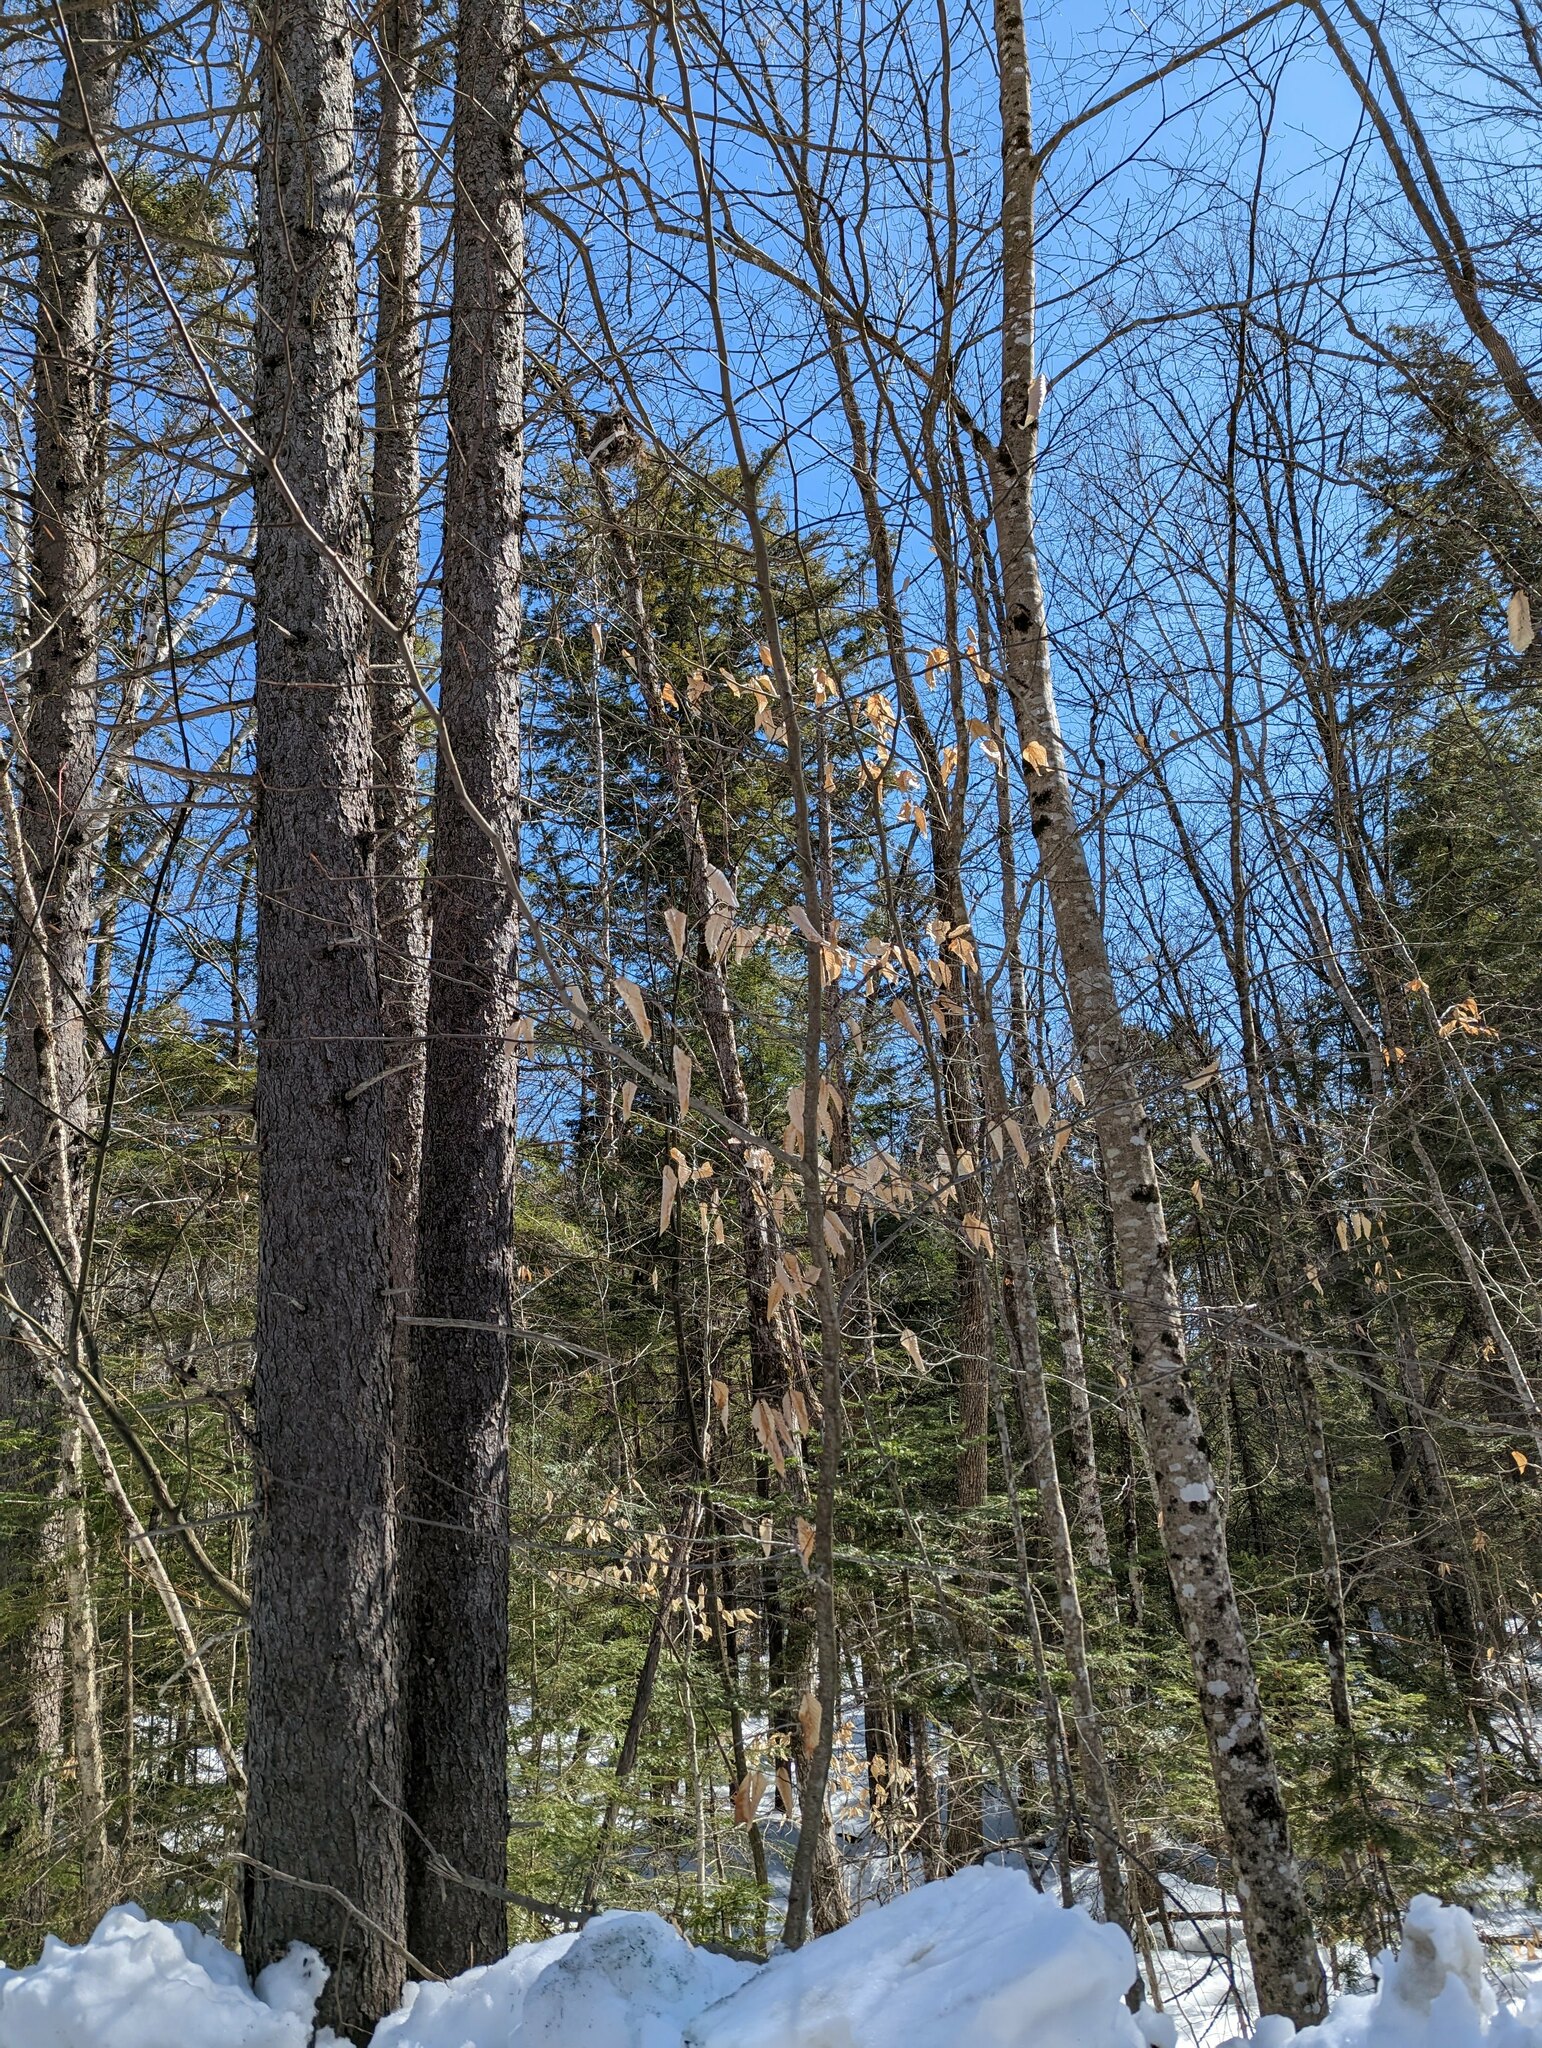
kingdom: Plantae
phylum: Tracheophyta
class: Magnoliopsida
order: Fagales
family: Fagaceae
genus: Fagus
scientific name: Fagus grandifolia
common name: American beech
